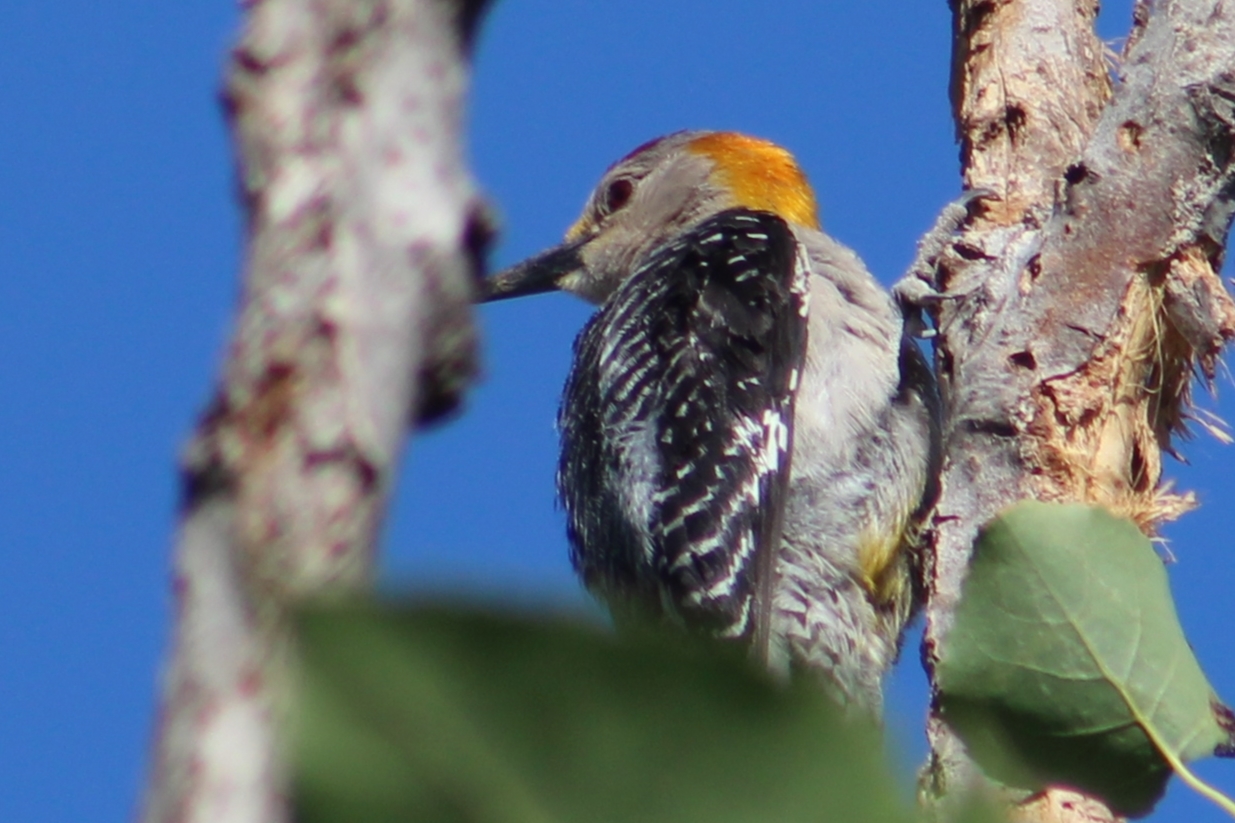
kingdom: Animalia
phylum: Chordata
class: Aves
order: Piciformes
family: Picidae
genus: Melanerpes
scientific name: Melanerpes aurifrons
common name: Golden-fronted woodpecker
